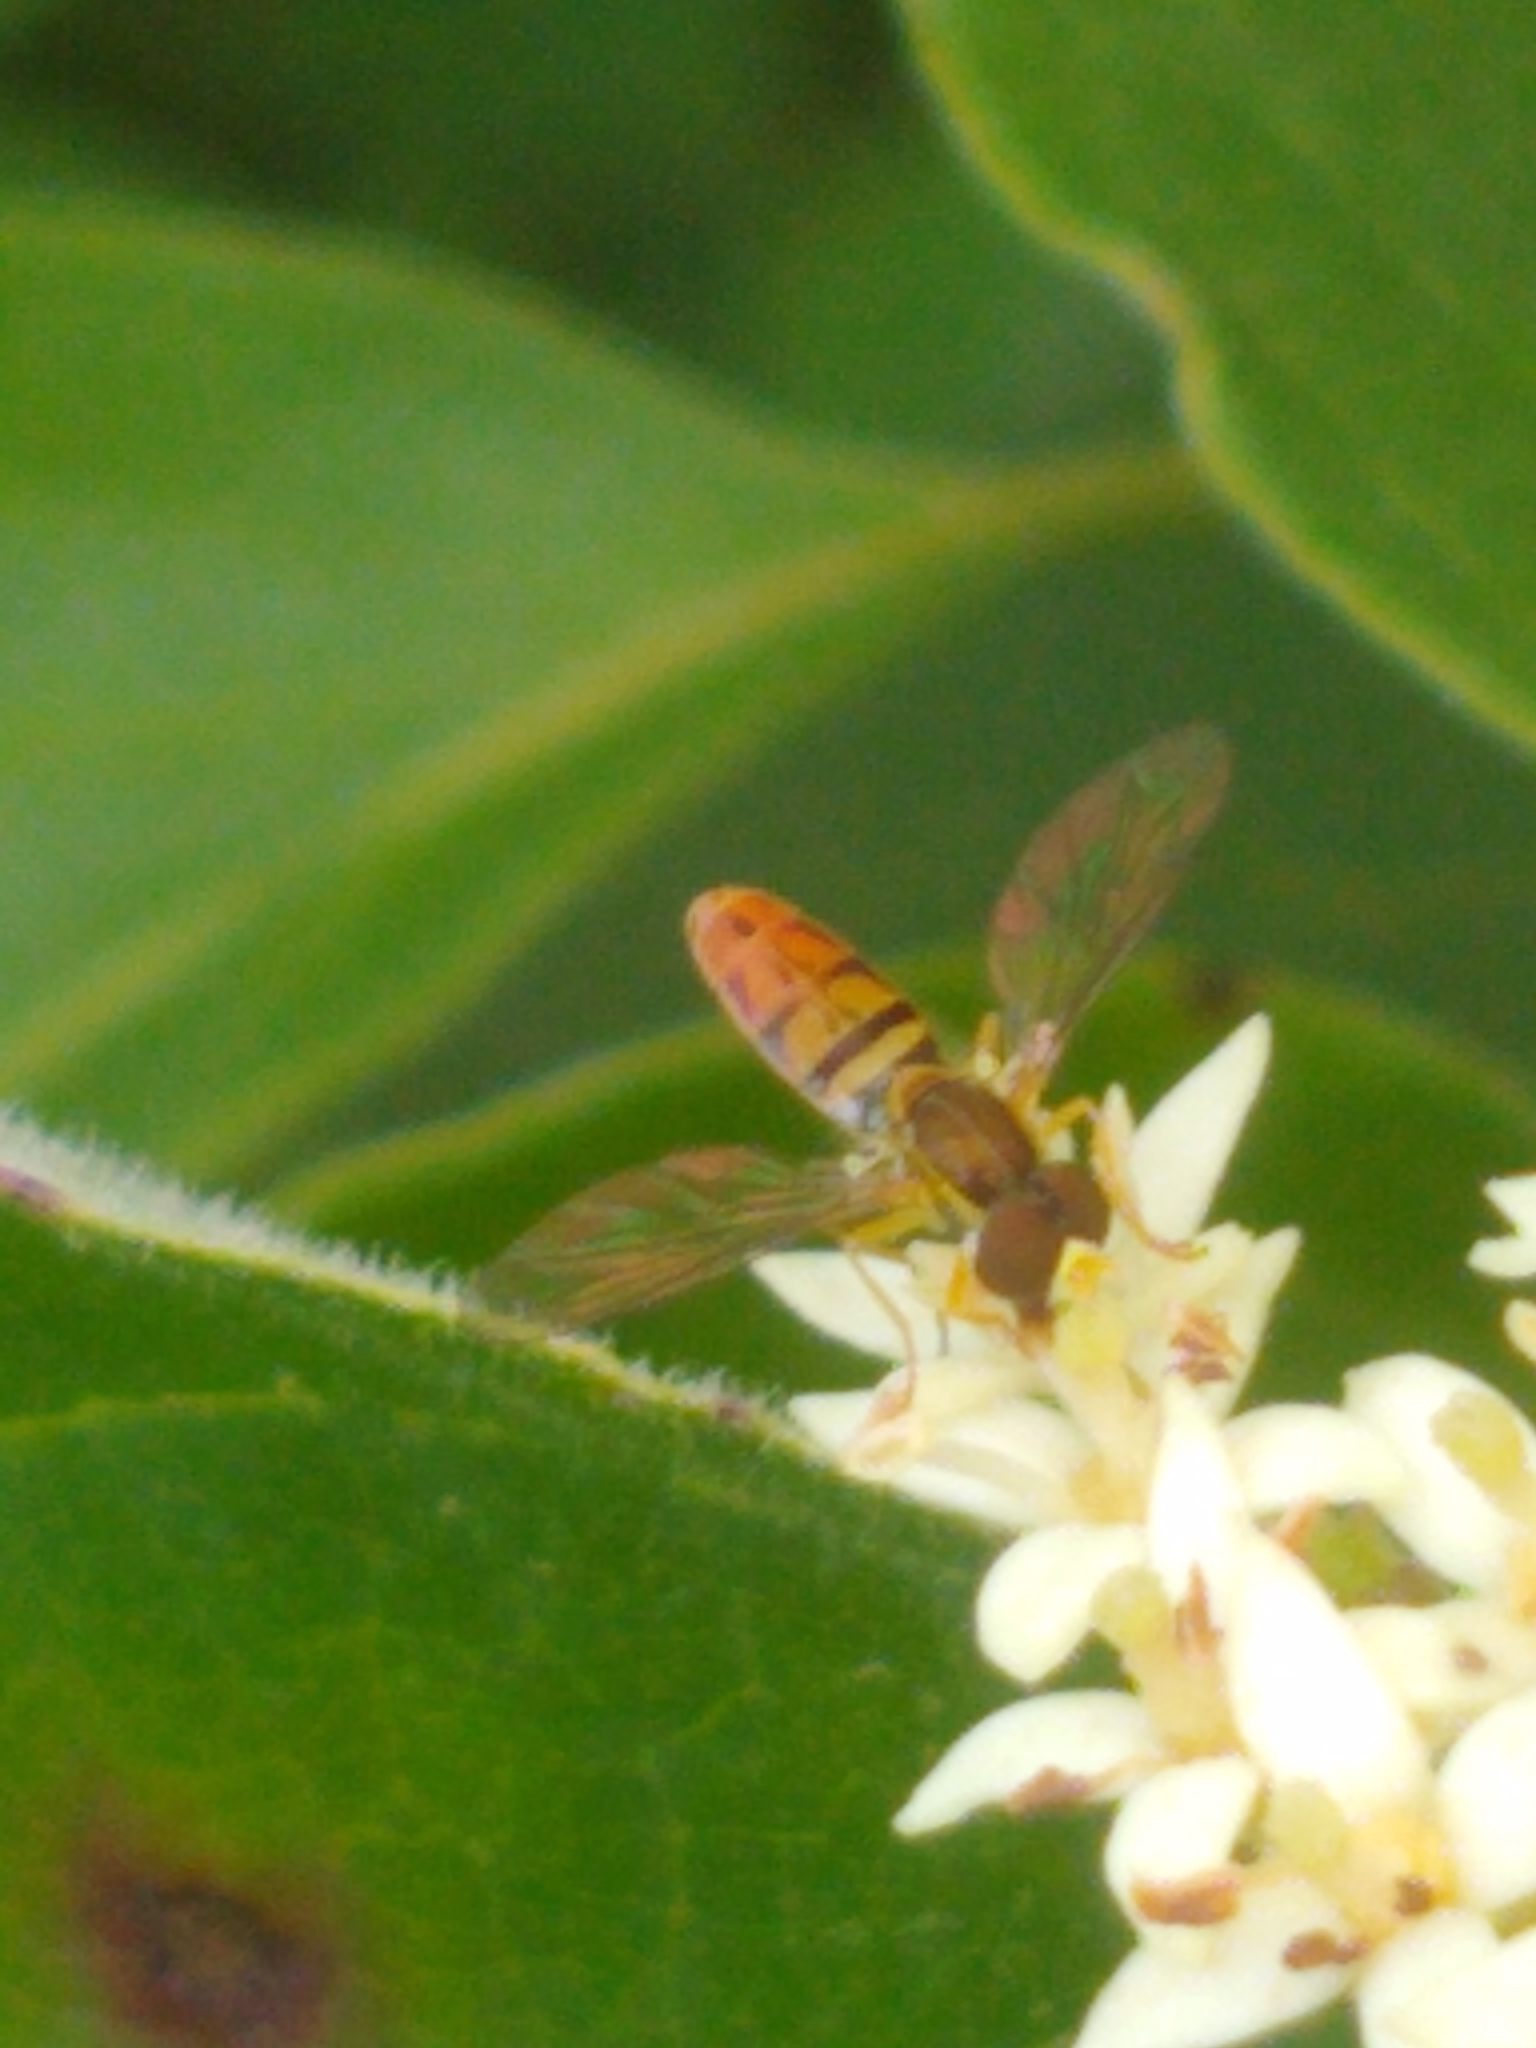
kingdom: Animalia
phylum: Arthropoda
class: Insecta
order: Diptera
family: Syrphidae
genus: Toxomerus
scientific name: Toxomerus marginatus
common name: Syrphid fly
